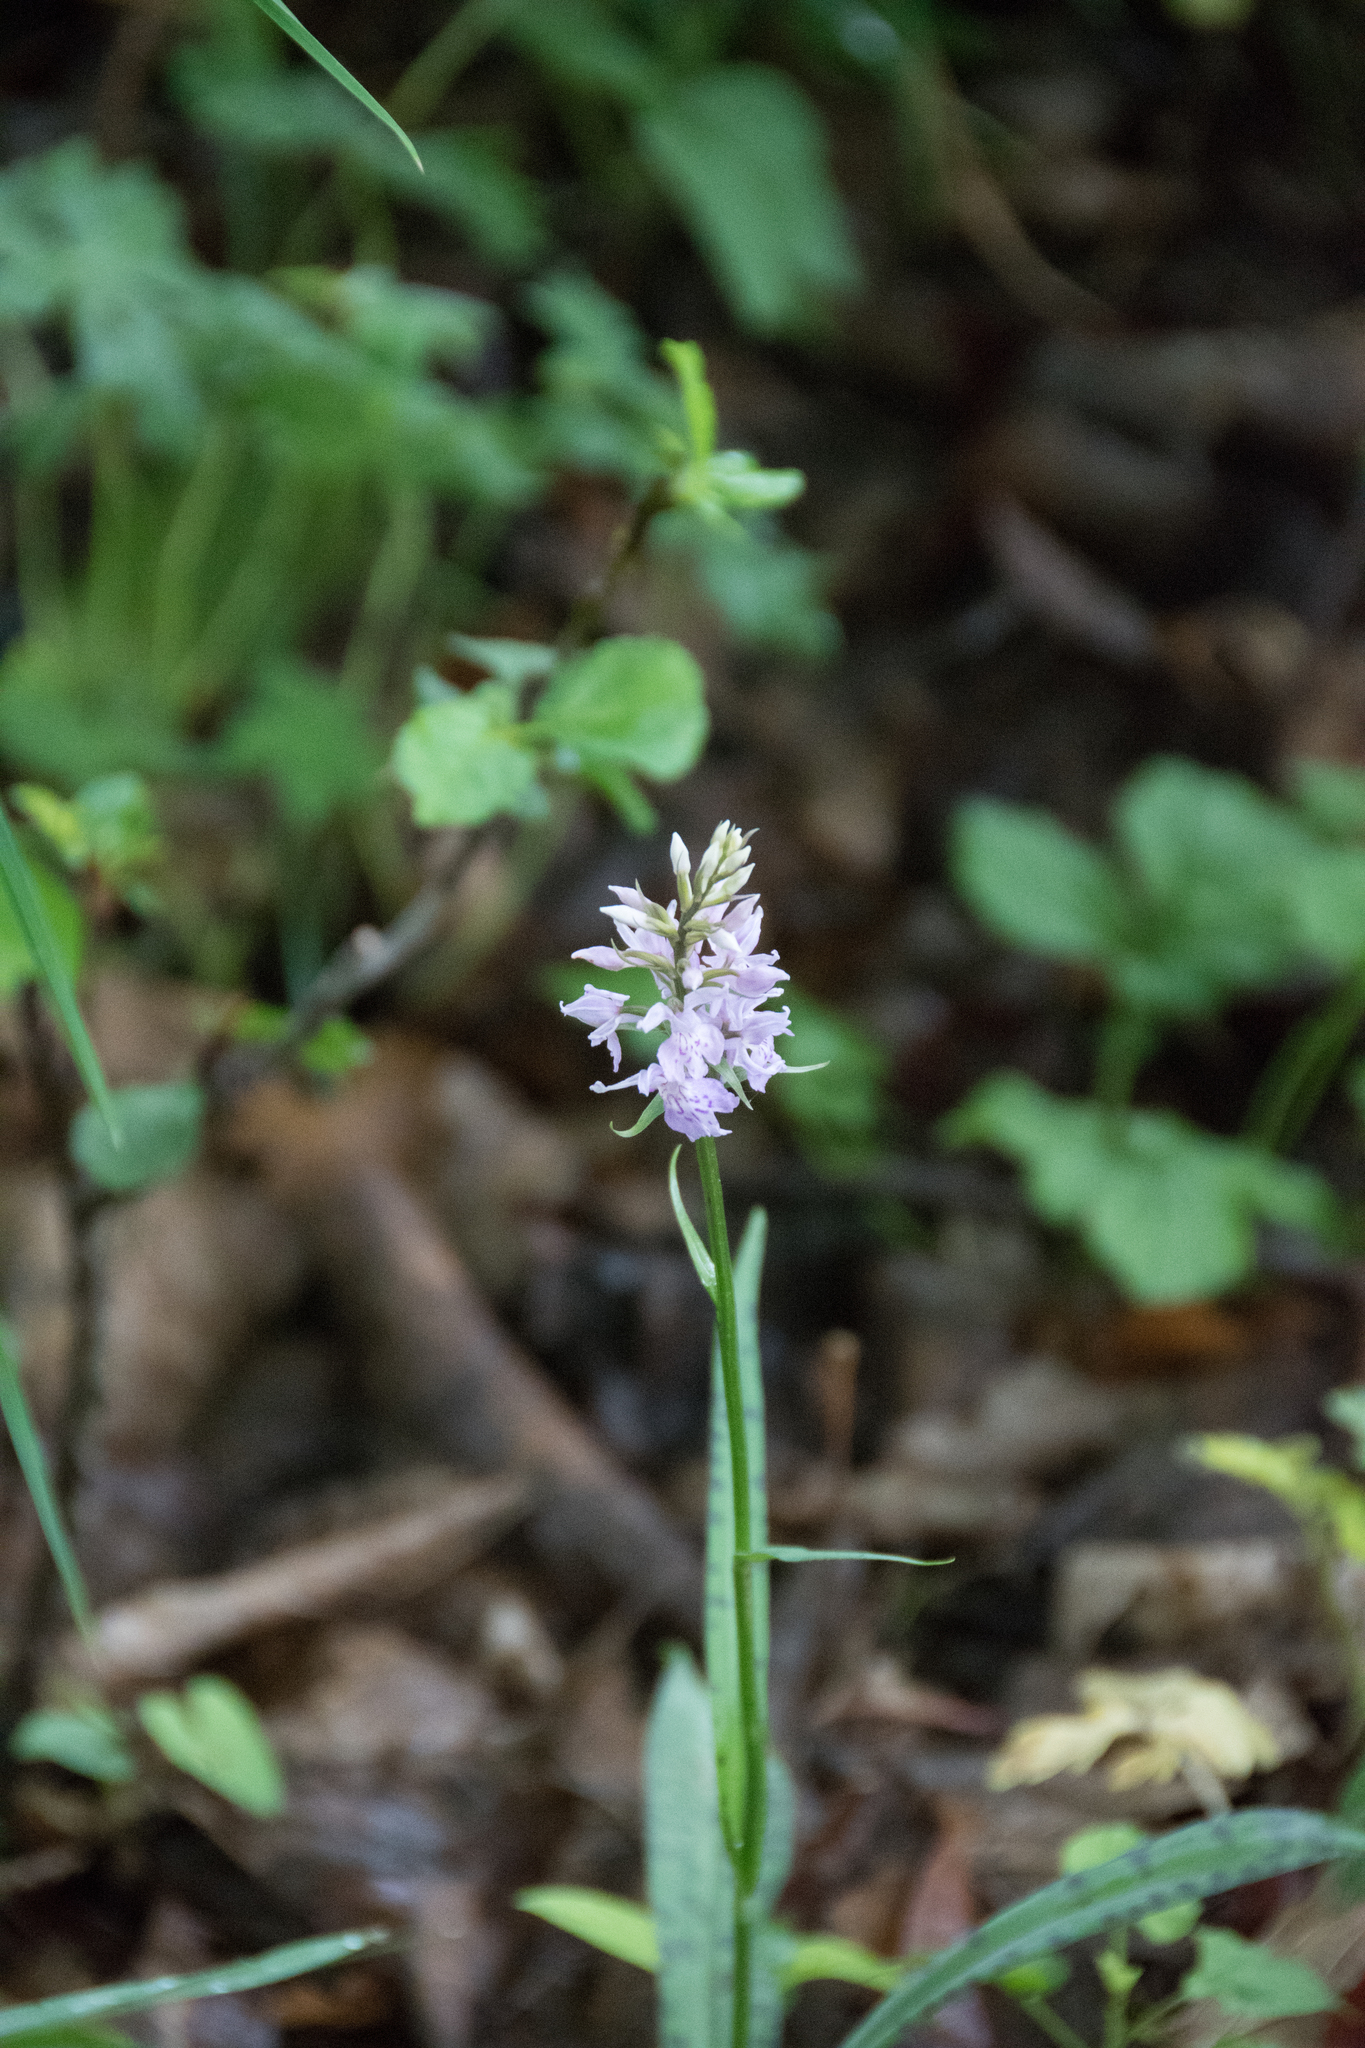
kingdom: Plantae
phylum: Tracheophyta
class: Liliopsida
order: Asparagales
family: Orchidaceae
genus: Dactylorhiza
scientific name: Dactylorhiza maculata
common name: Heath spotted-orchid
